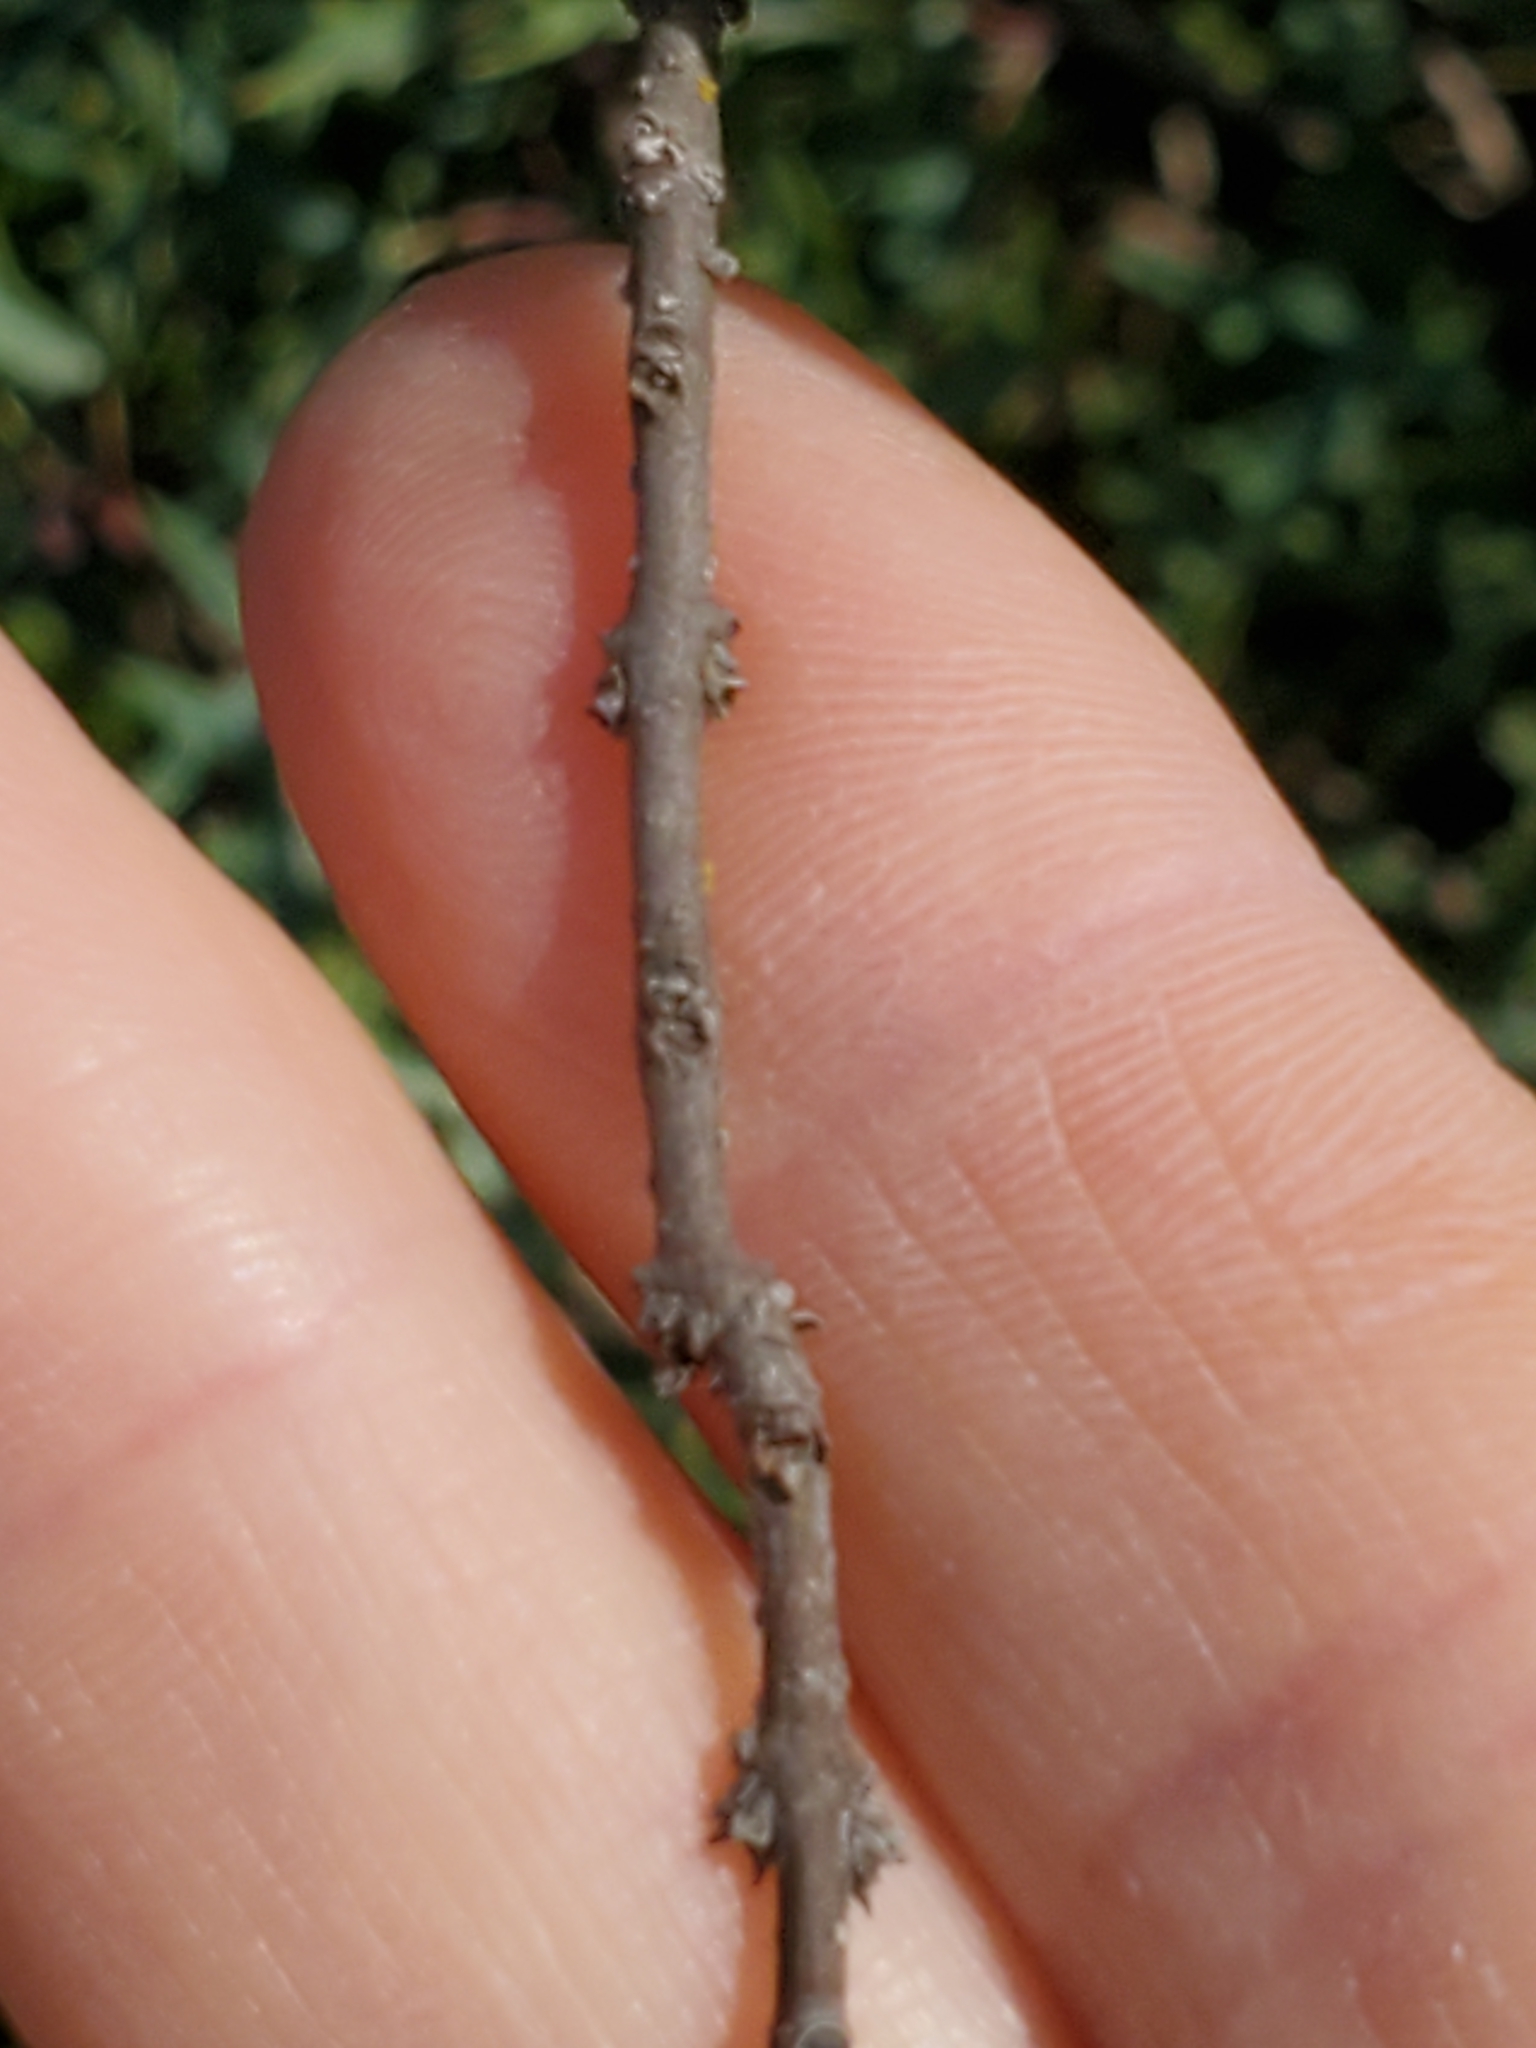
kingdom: Plantae
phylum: Tracheophyta
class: Magnoliopsida
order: Lamiales
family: Oleaceae
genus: Forestiera
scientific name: Forestiera reticulata
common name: Netleaf swamp-privet
